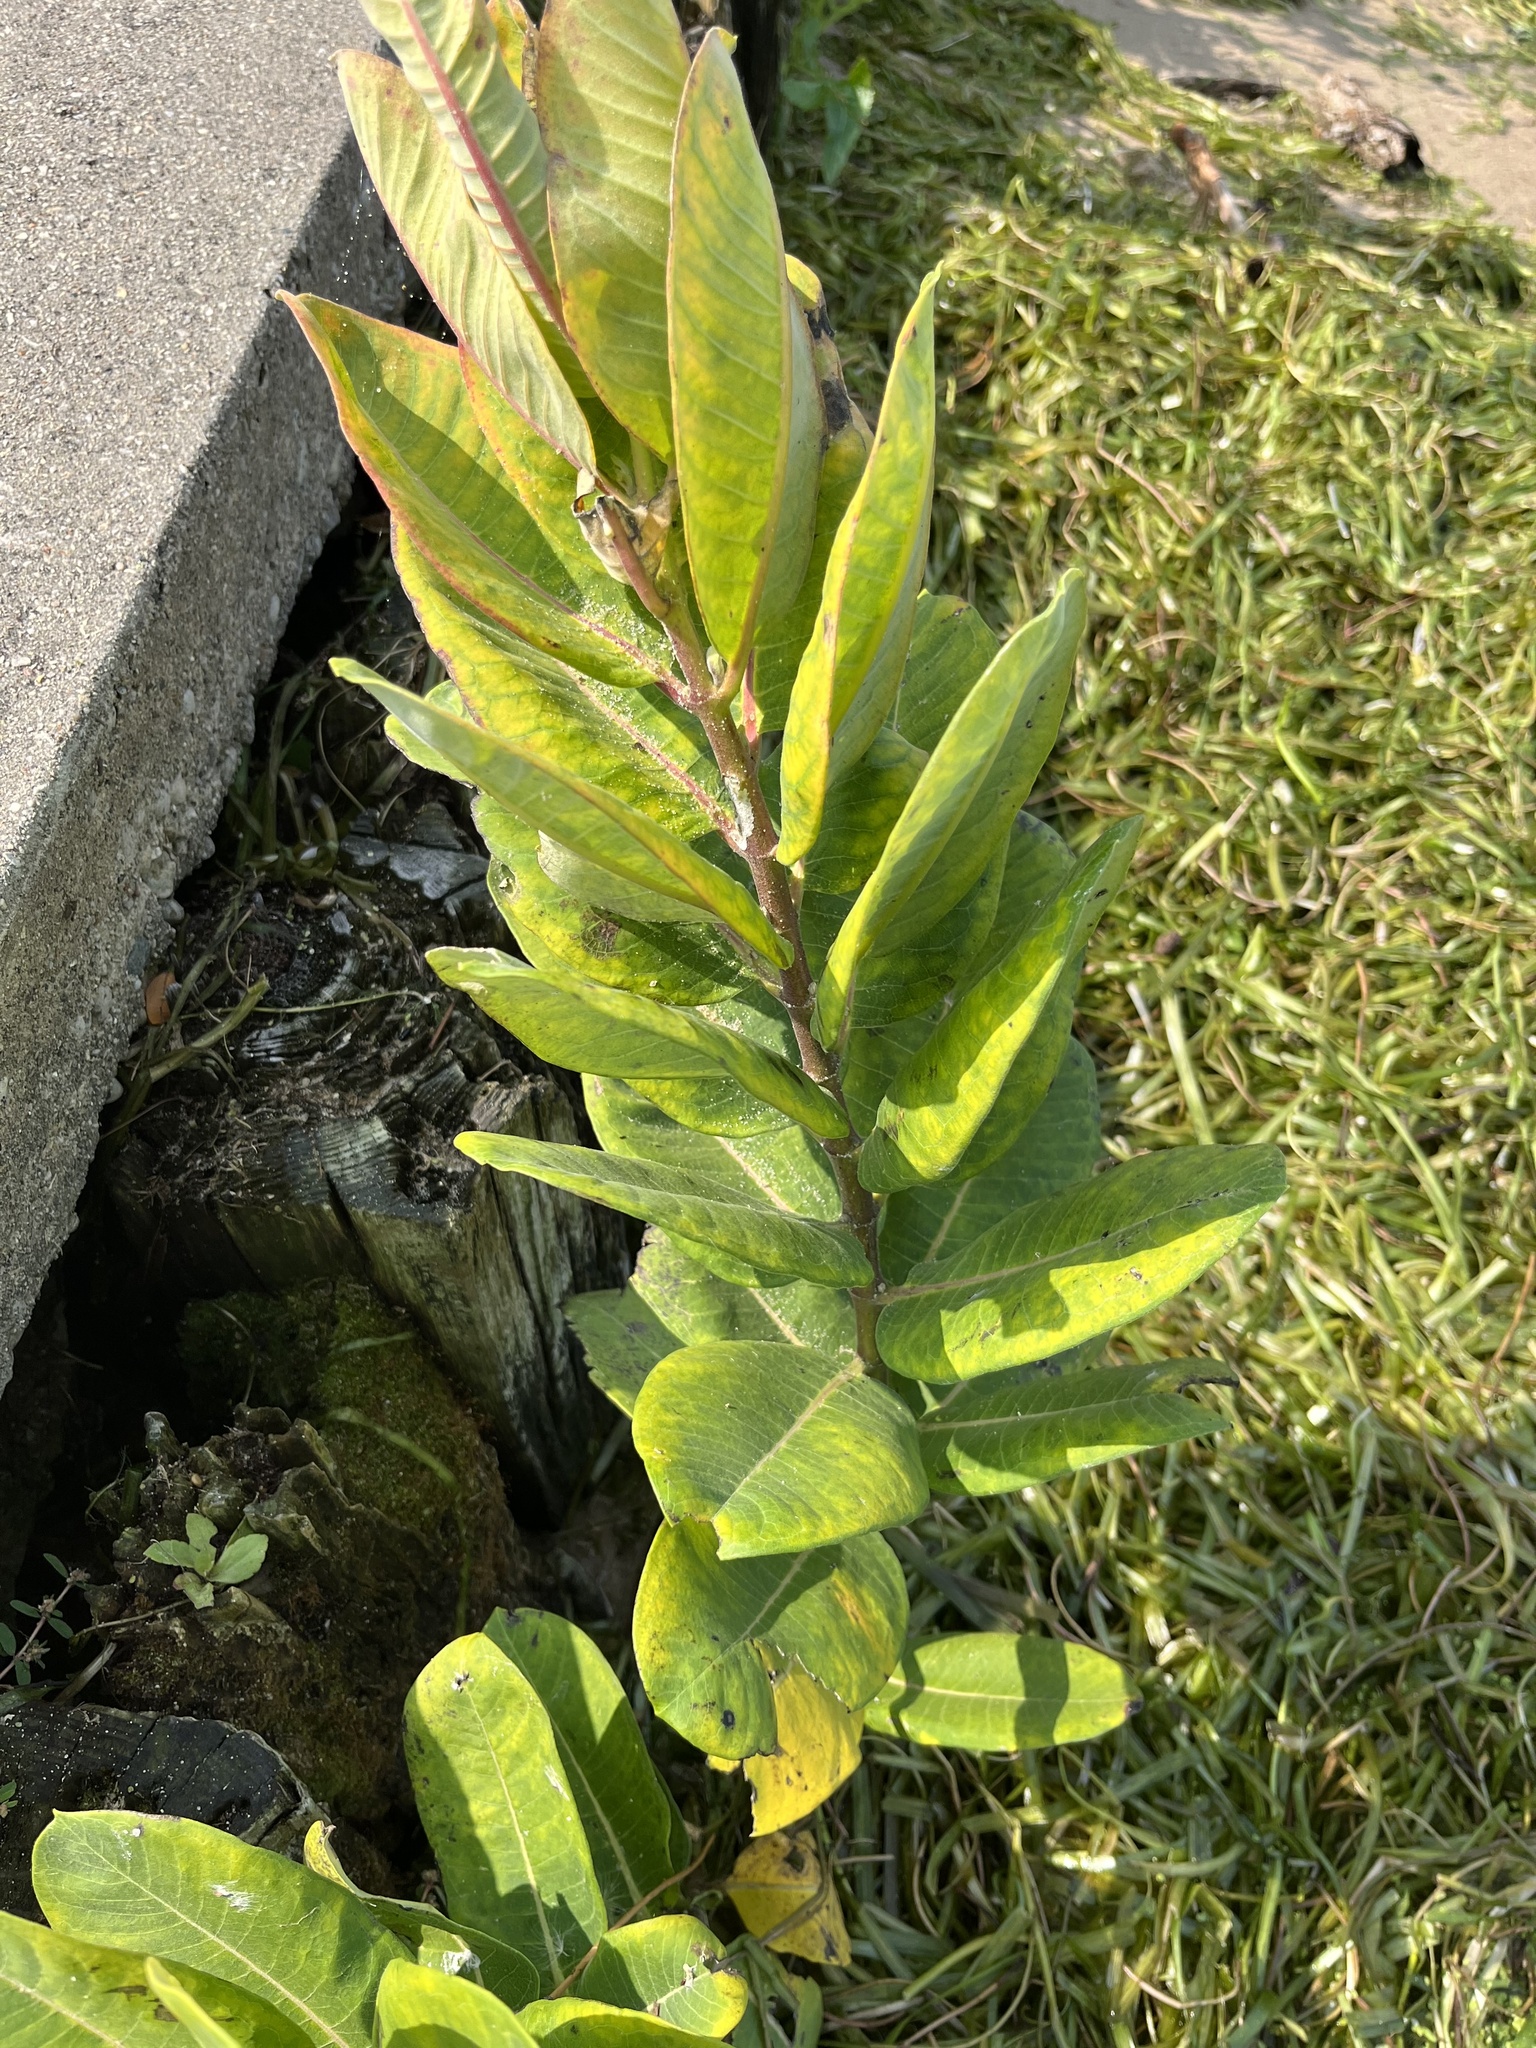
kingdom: Plantae
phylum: Tracheophyta
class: Magnoliopsida
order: Gentianales
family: Apocynaceae
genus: Asclepias
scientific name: Asclepias syriaca
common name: Common milkweed
